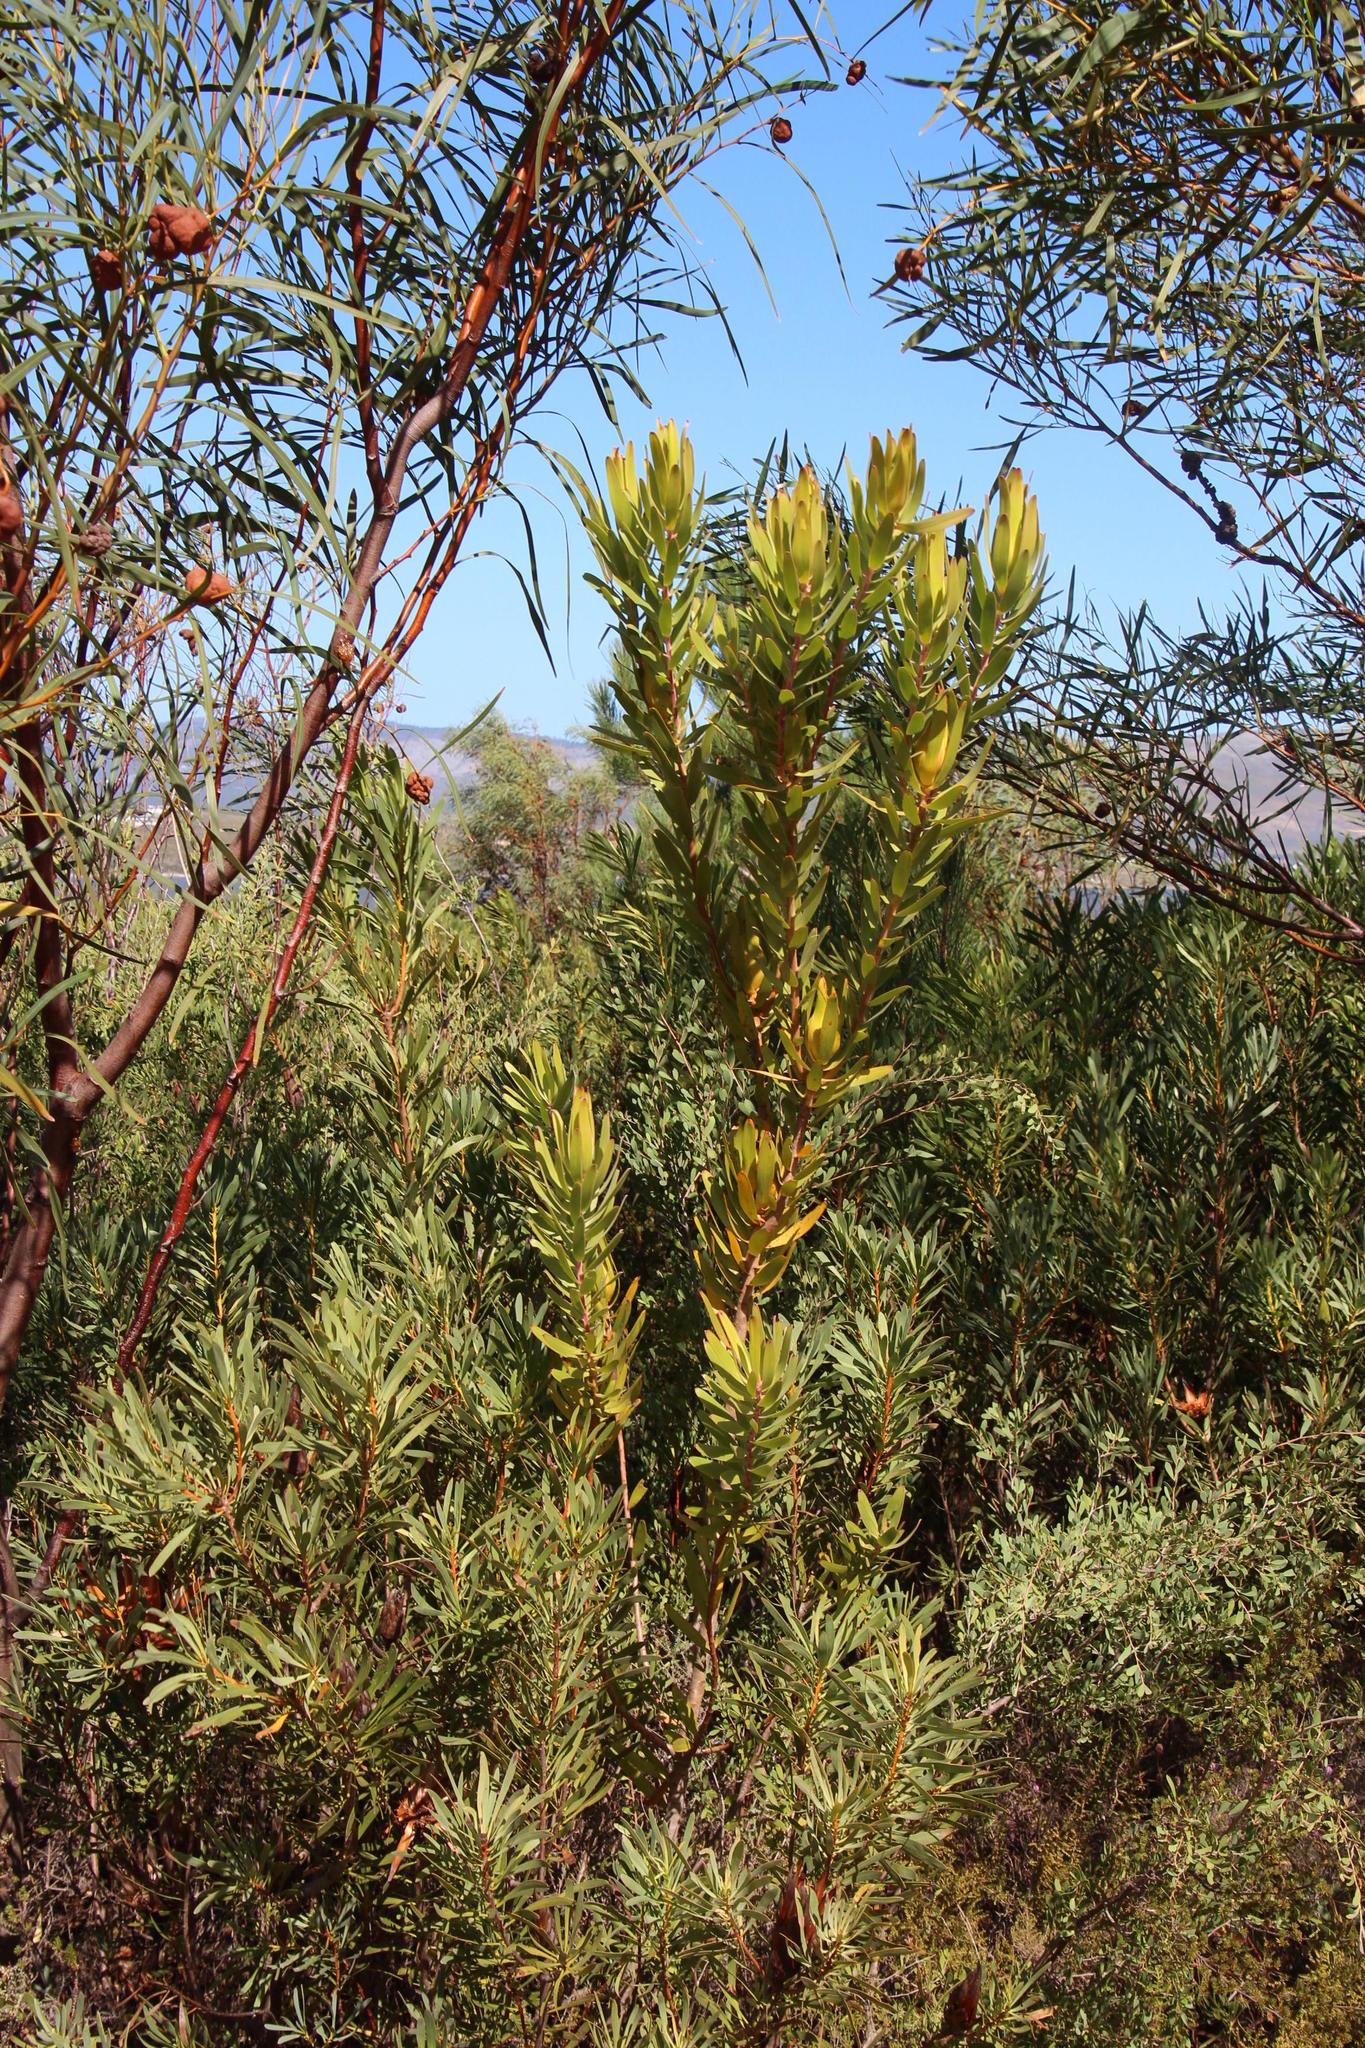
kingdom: Plantae
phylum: Tracheophyta
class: Magnoliopsida
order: Fabales
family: Fabaceae
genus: Acacia
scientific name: Acacia saligna
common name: Orange wattle
